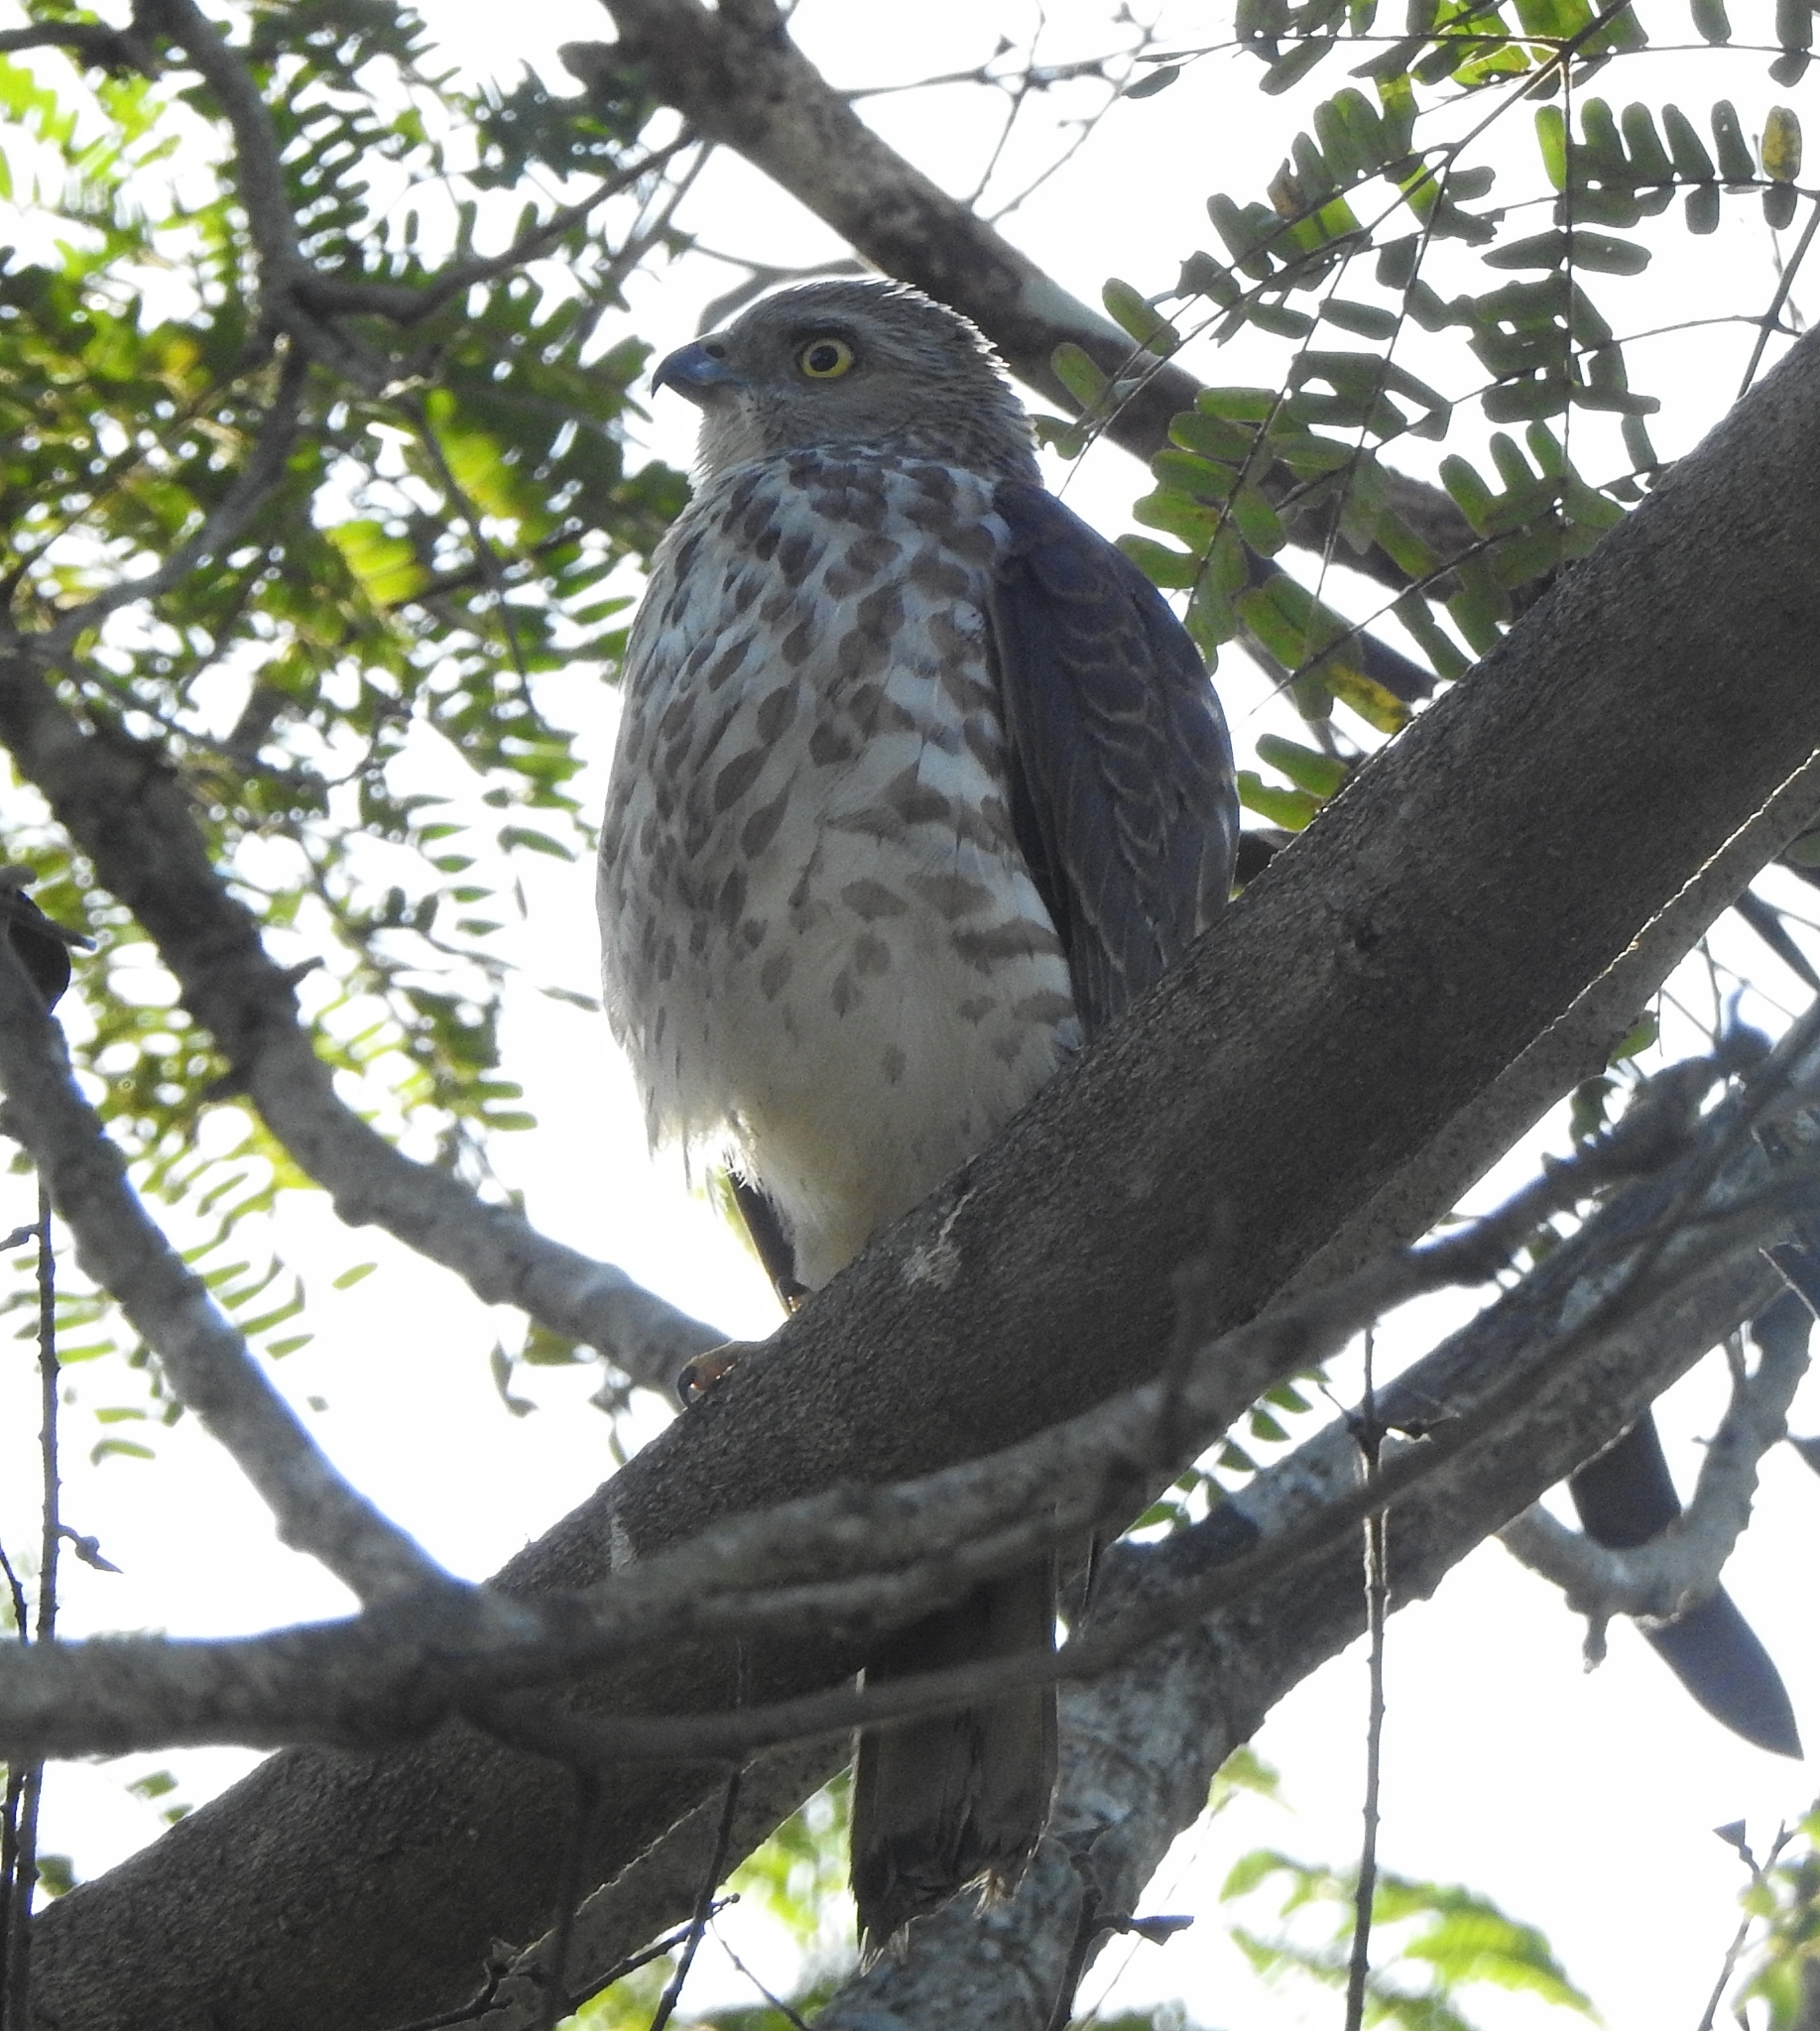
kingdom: Animalia
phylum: Chordata
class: Aves
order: Accipitriformes
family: Accipitridae
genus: Accipiter
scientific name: Accipiter badius
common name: Shikra
